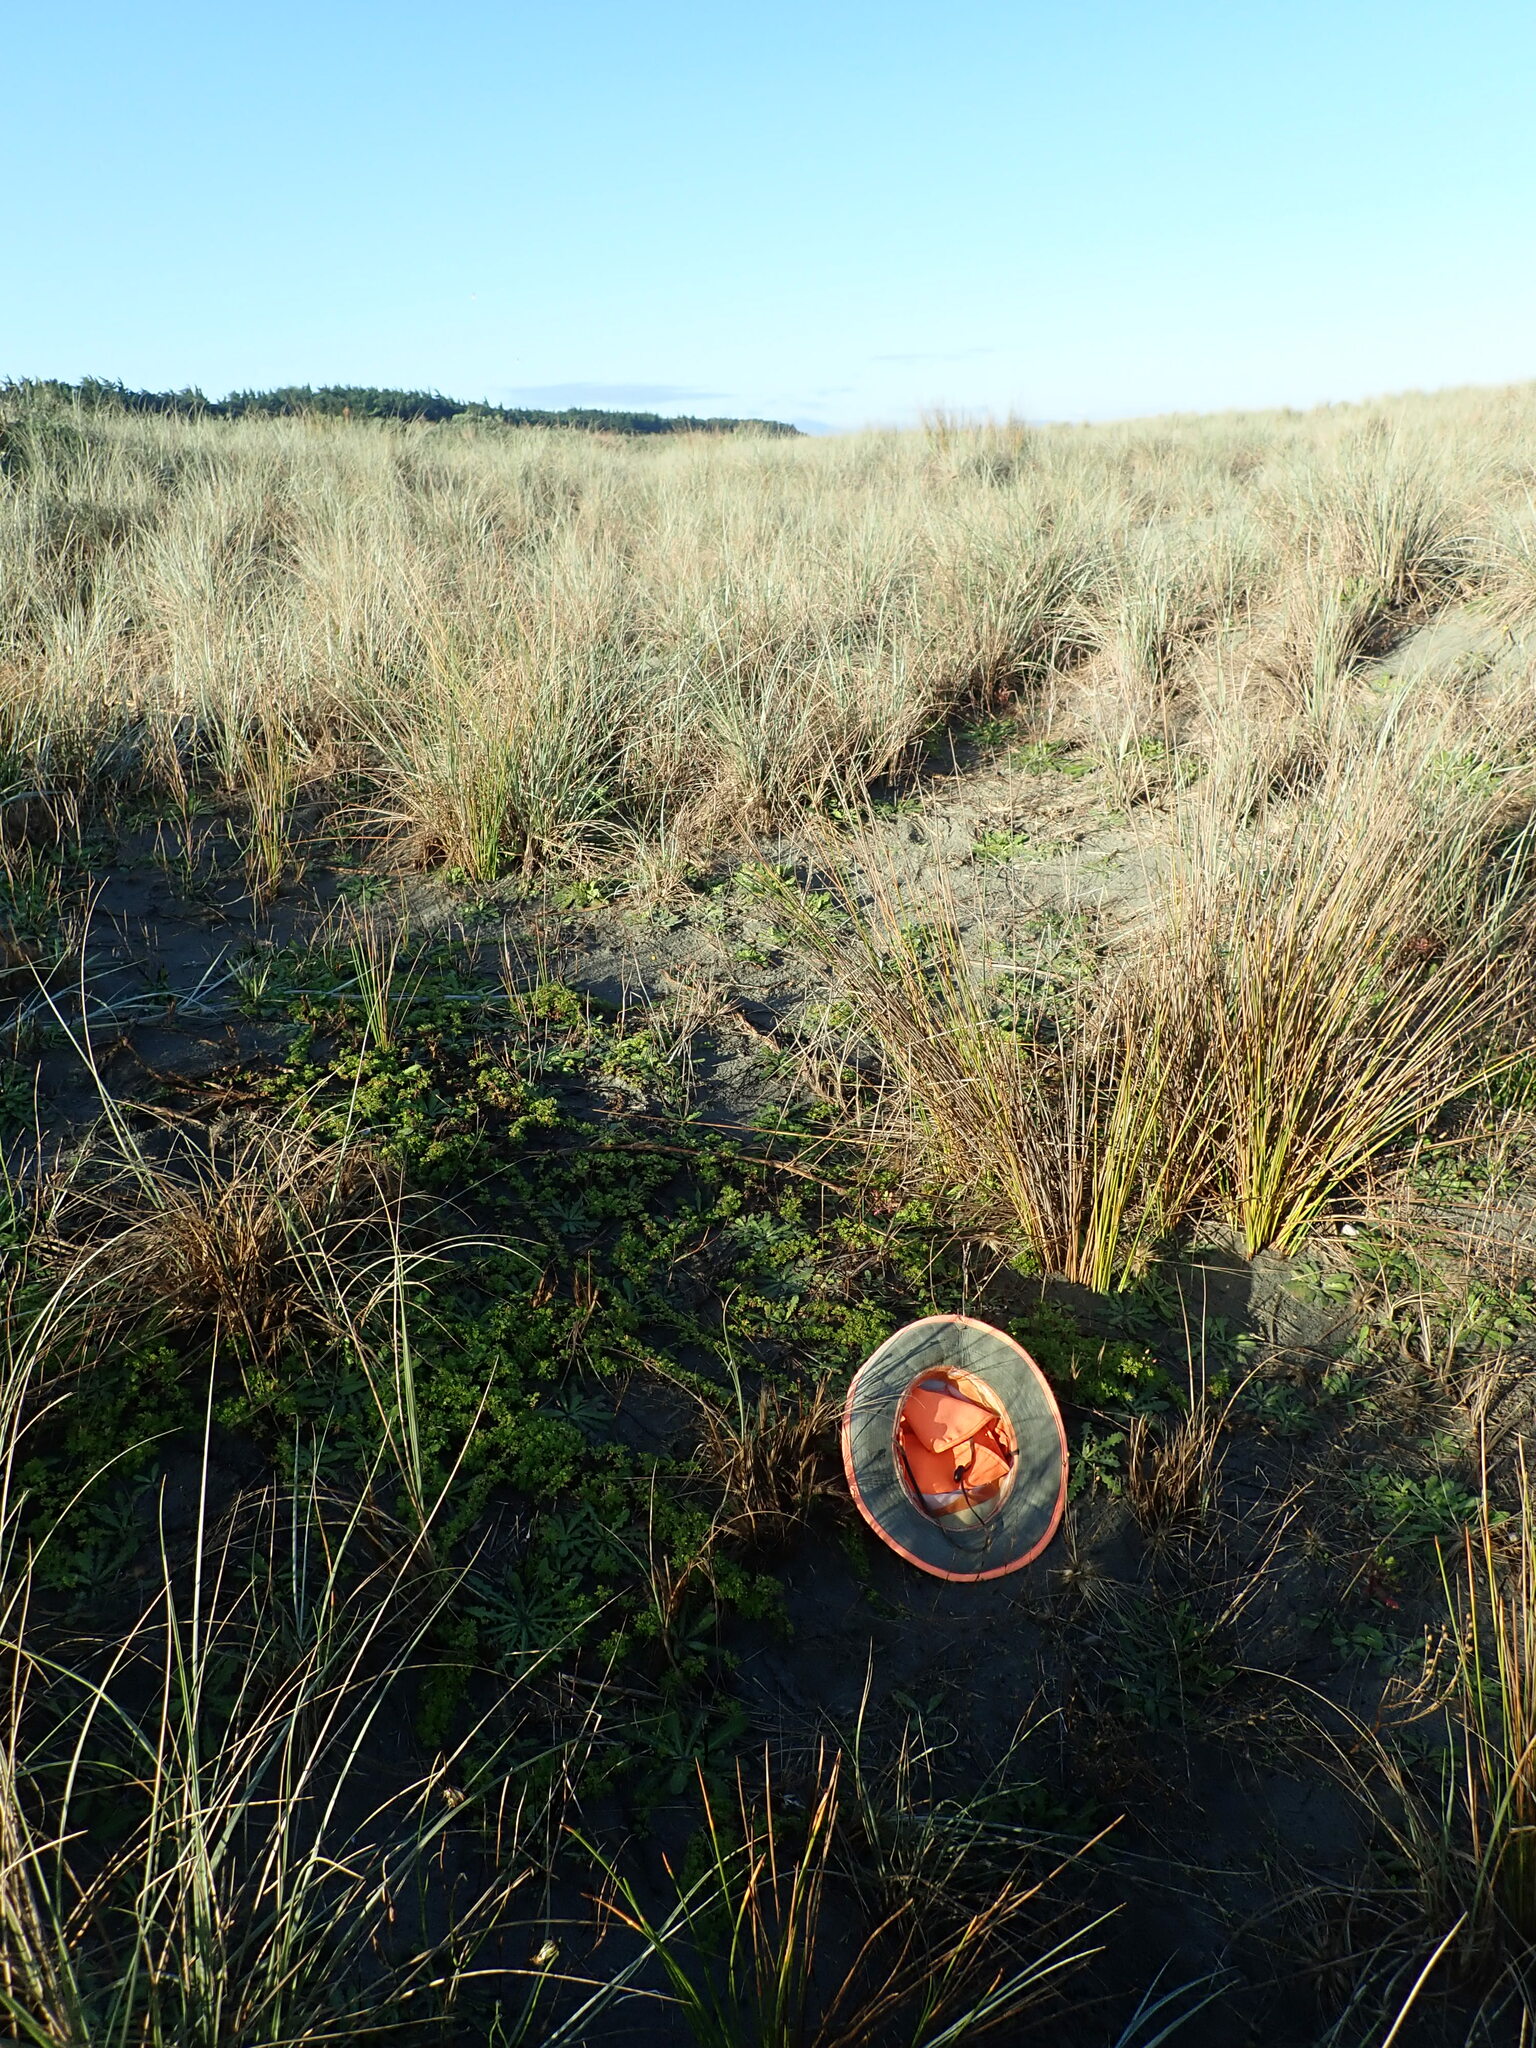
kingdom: Plantae
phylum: Tracheophyta
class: Magnoliopsida
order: Rosales
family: Rosaceae
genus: Acaena
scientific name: Acaena novae-zelandiae
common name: Pirri-pirri-bur
